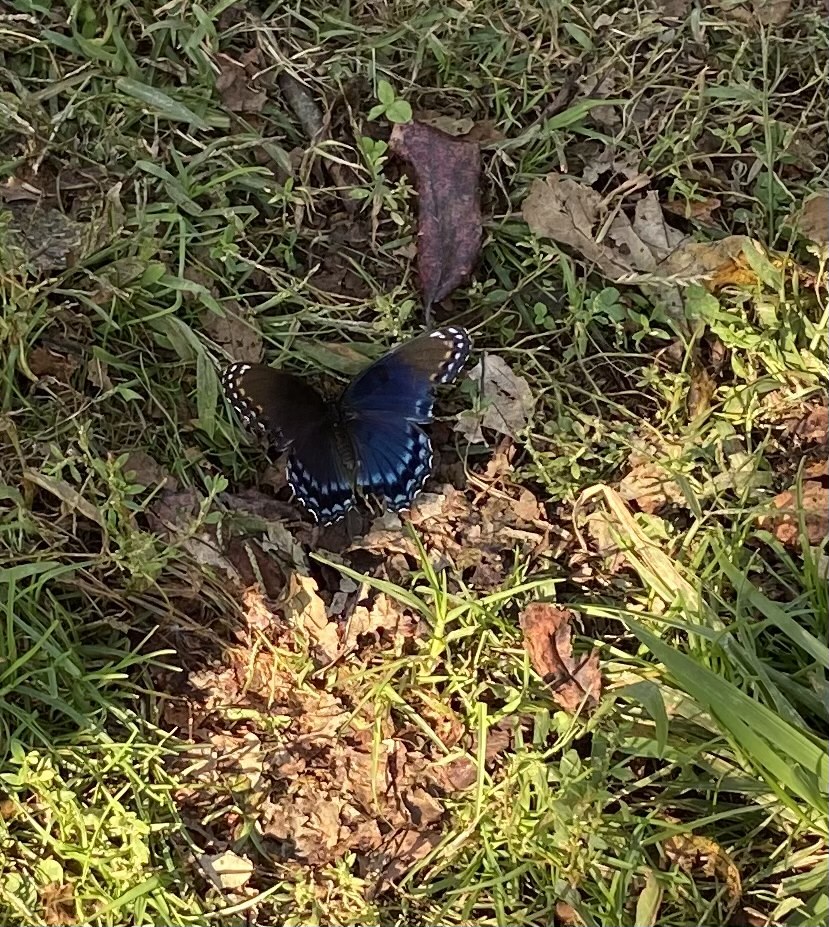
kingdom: Animalia
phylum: Arthropoda
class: Insecta
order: Lepidoptera
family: Nymphalidae
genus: Limenitis
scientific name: Limenitis astyanax
